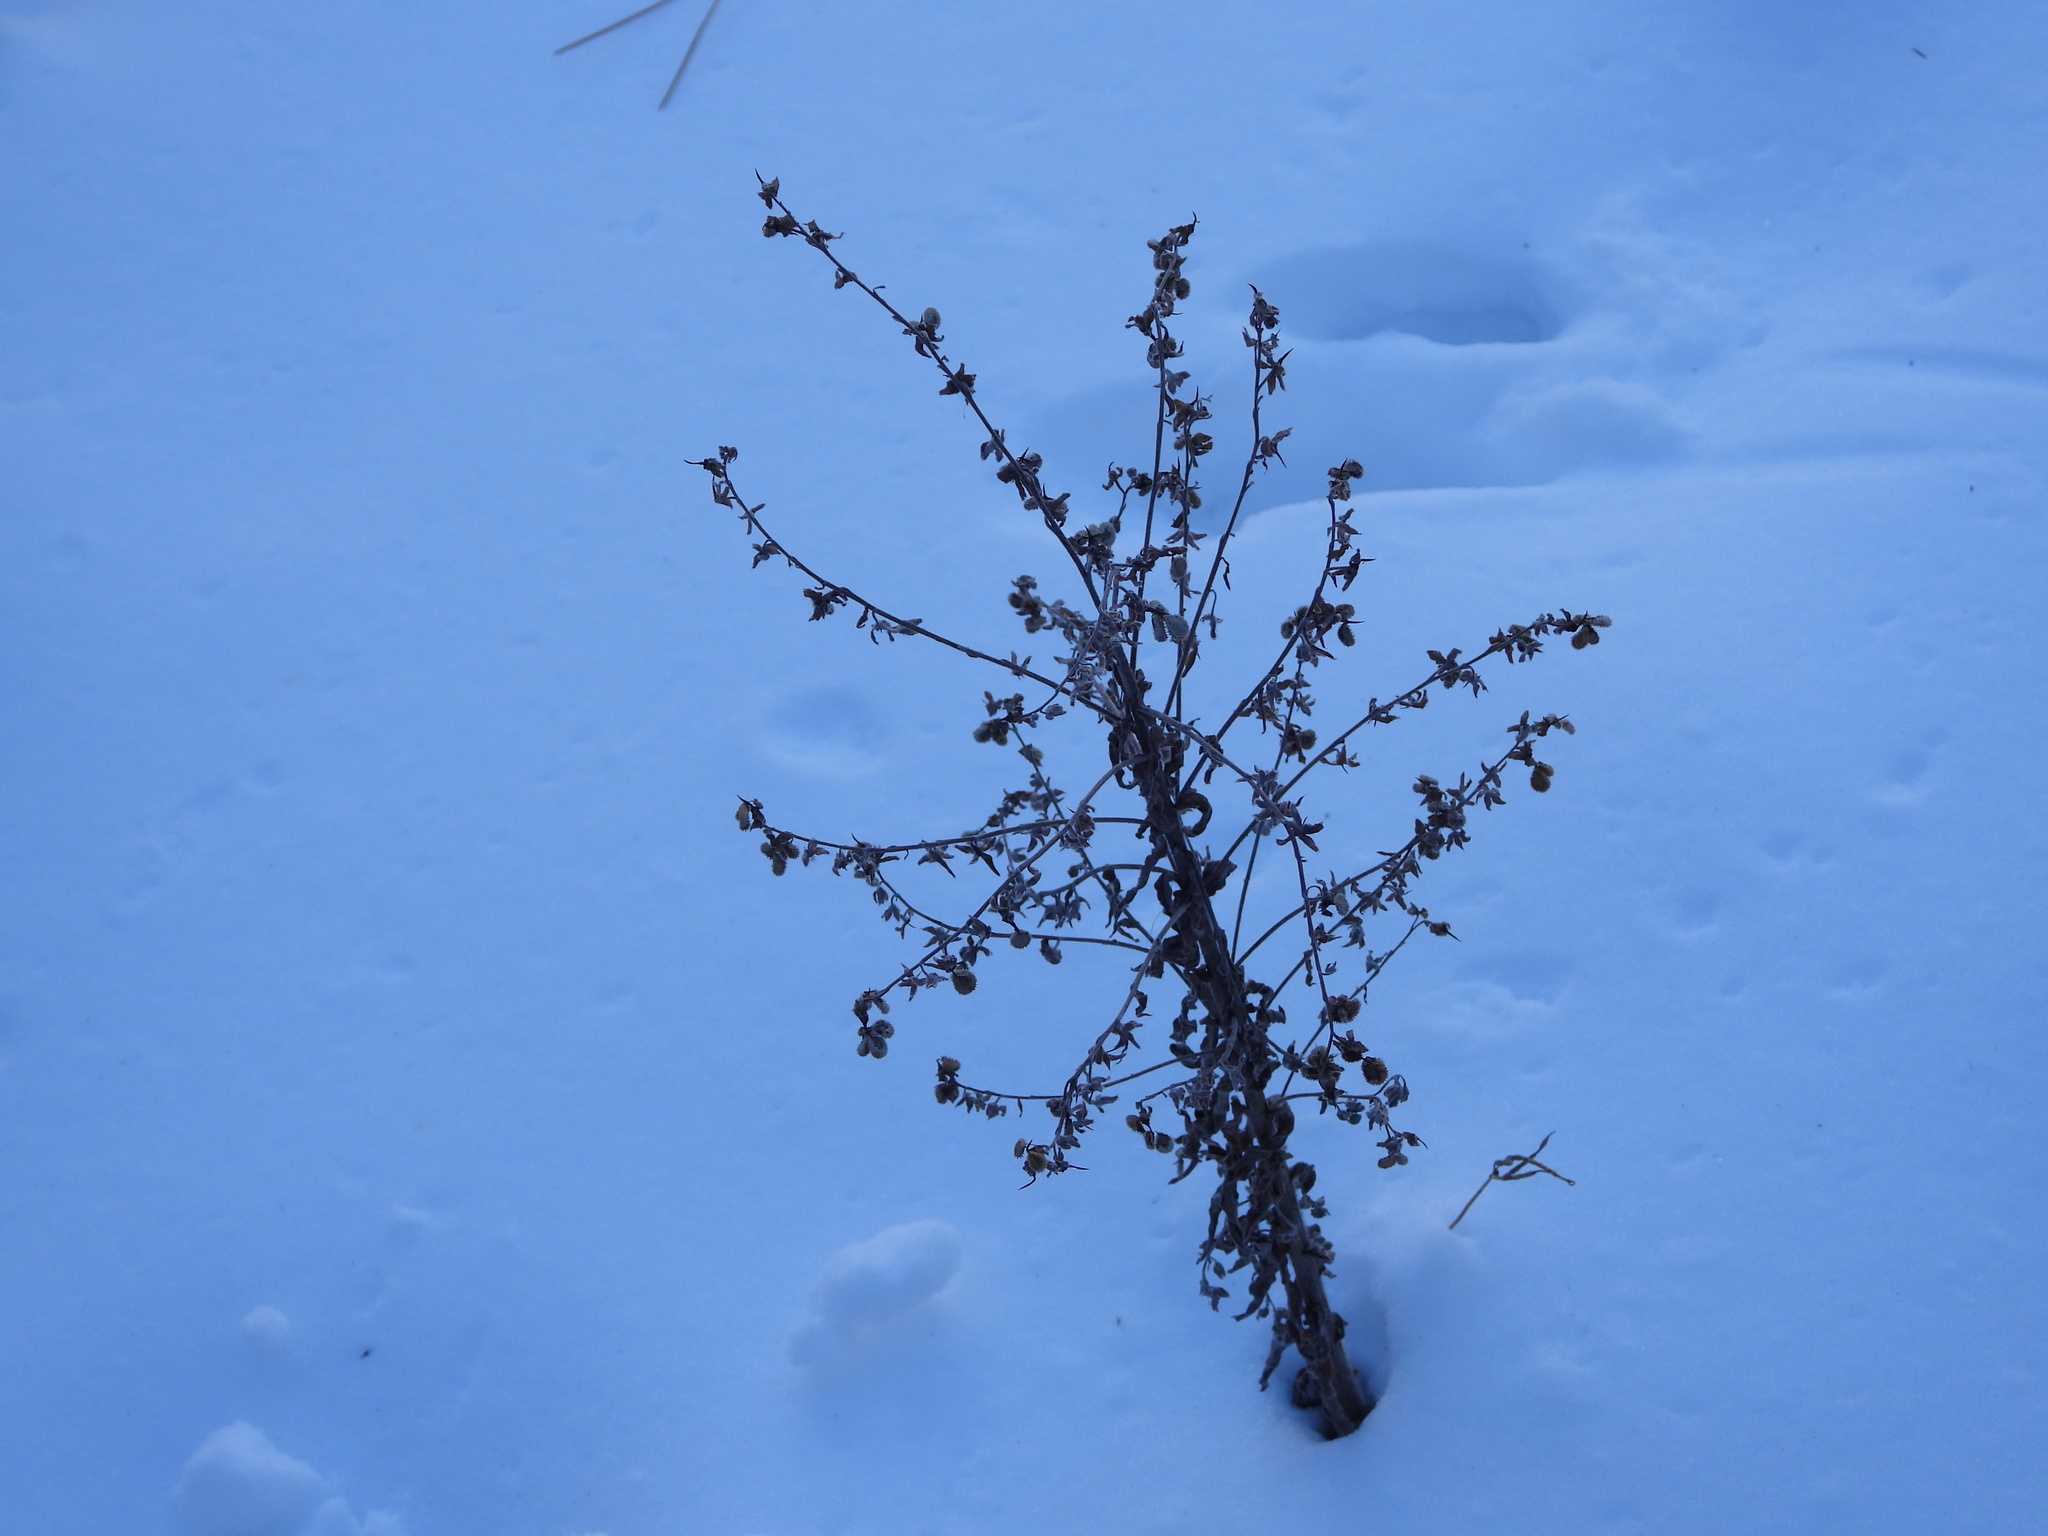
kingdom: Plantae
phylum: Tracheophyta
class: Magnoliopsida
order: Boraginales
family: Boraginaceae
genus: Cynoglossum
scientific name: Cynoglossum officinale
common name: Hound's-tongue
